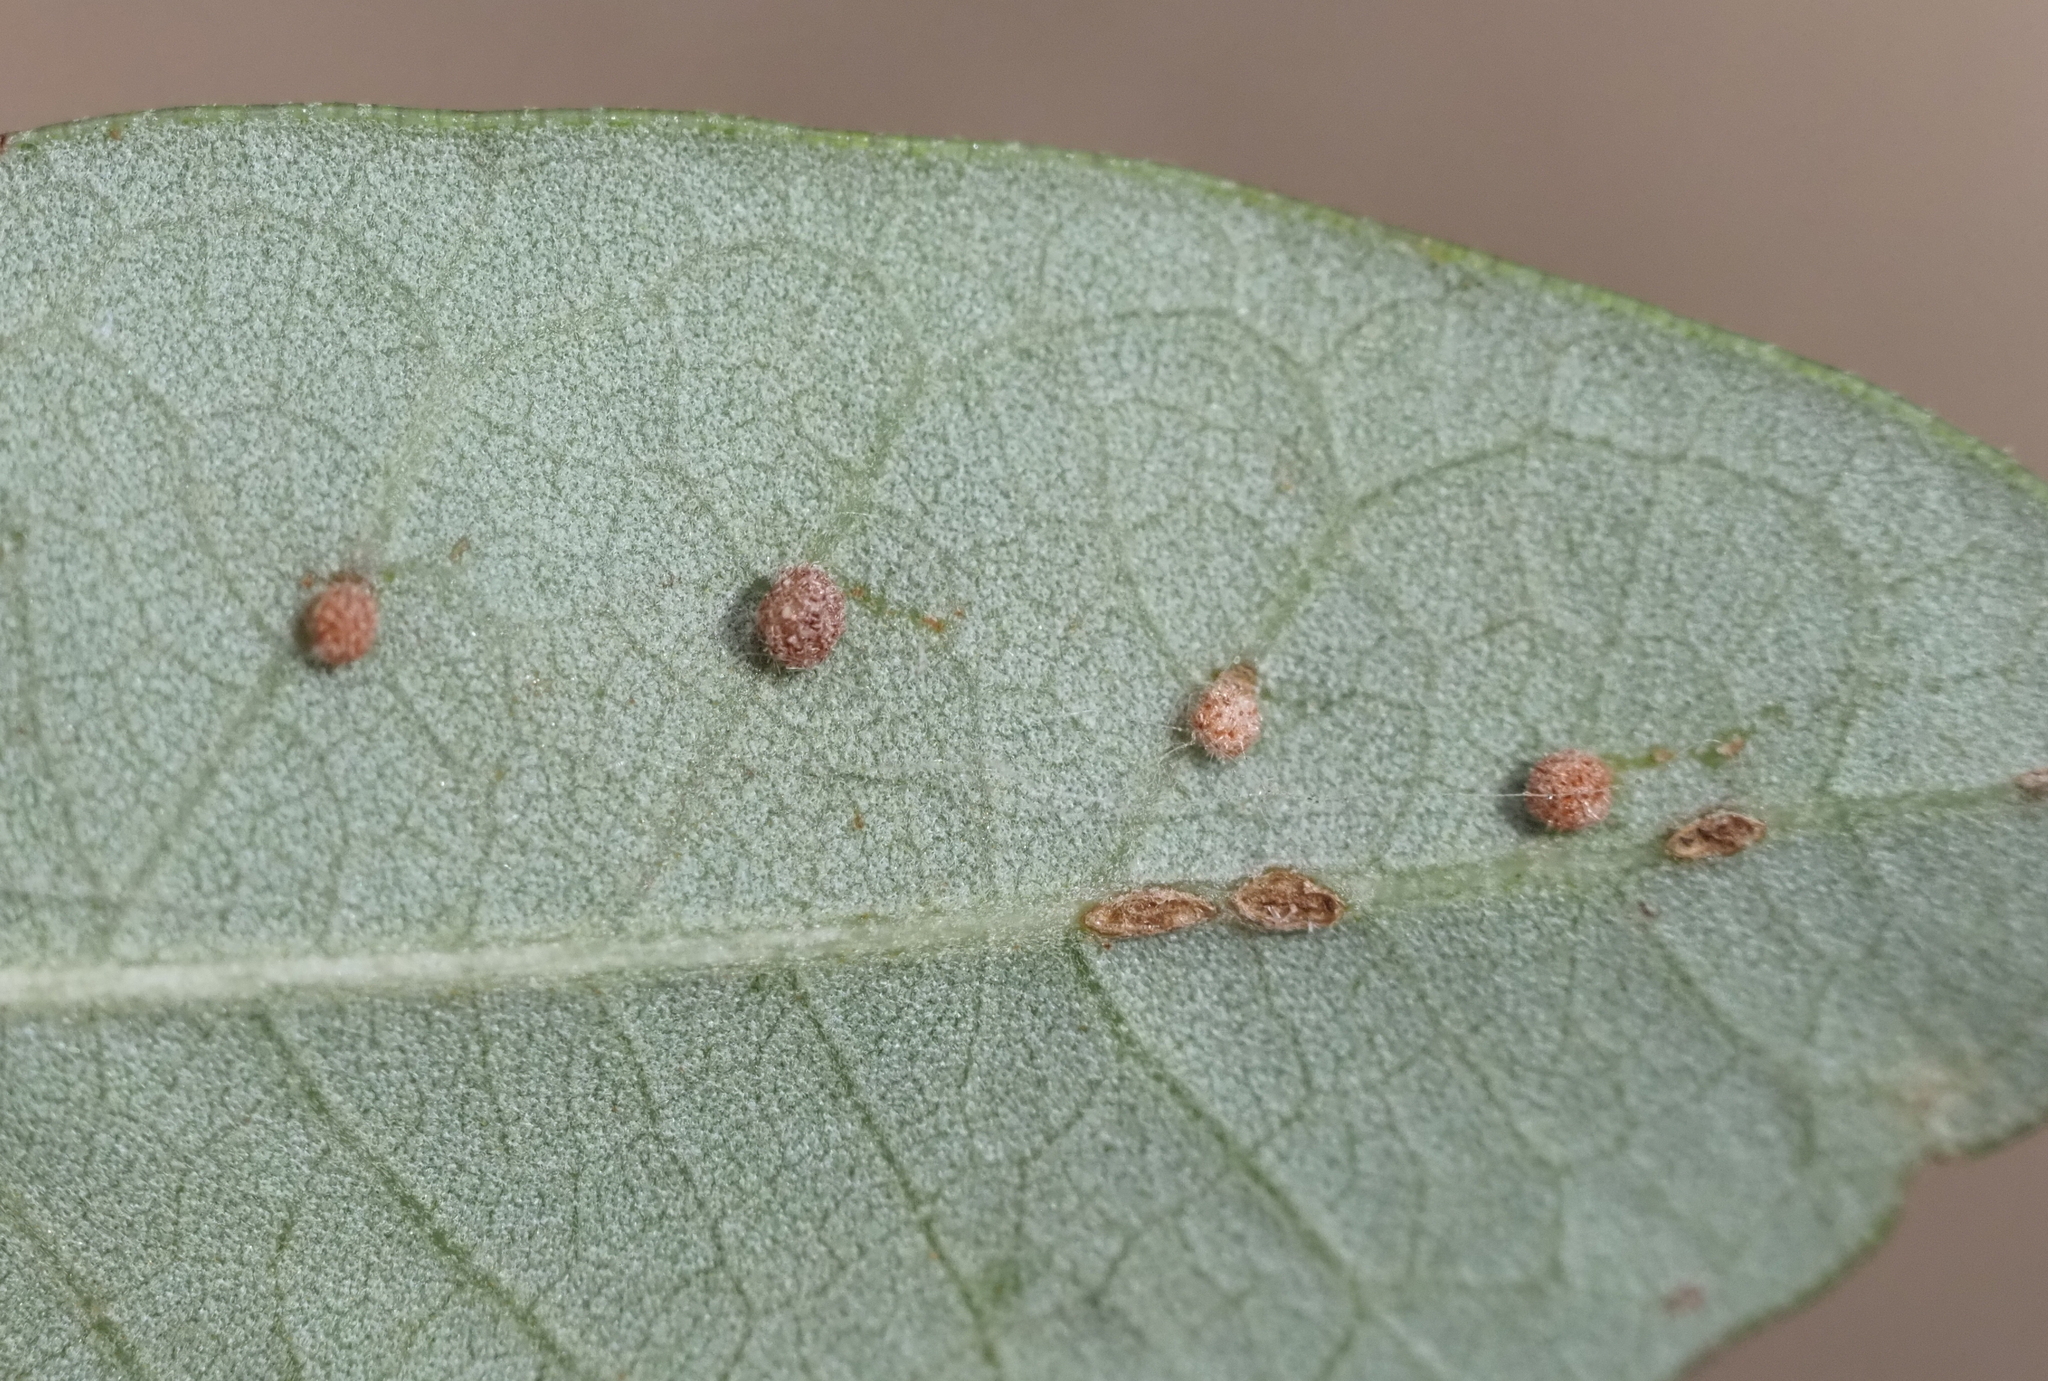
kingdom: Animalia
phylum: Arthropoda
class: Insecta
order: Hymenoptera
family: Cynipidae
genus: Belonocnema
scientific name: Belonocnema kinseyi
